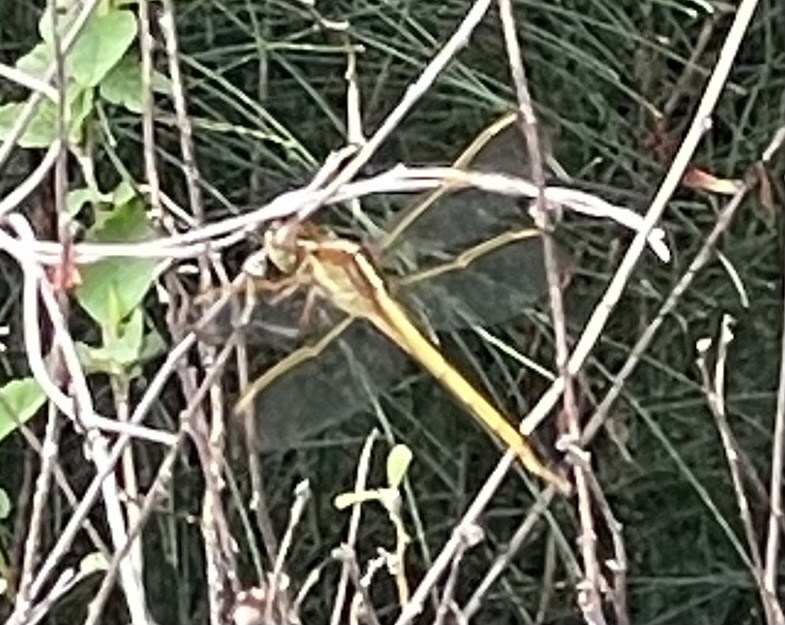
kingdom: Animalia
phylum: Arthropoda
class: Insecta
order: Odonata
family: Libellulidae
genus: Libellula
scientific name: Libellula needhami
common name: Needham's skimmer
